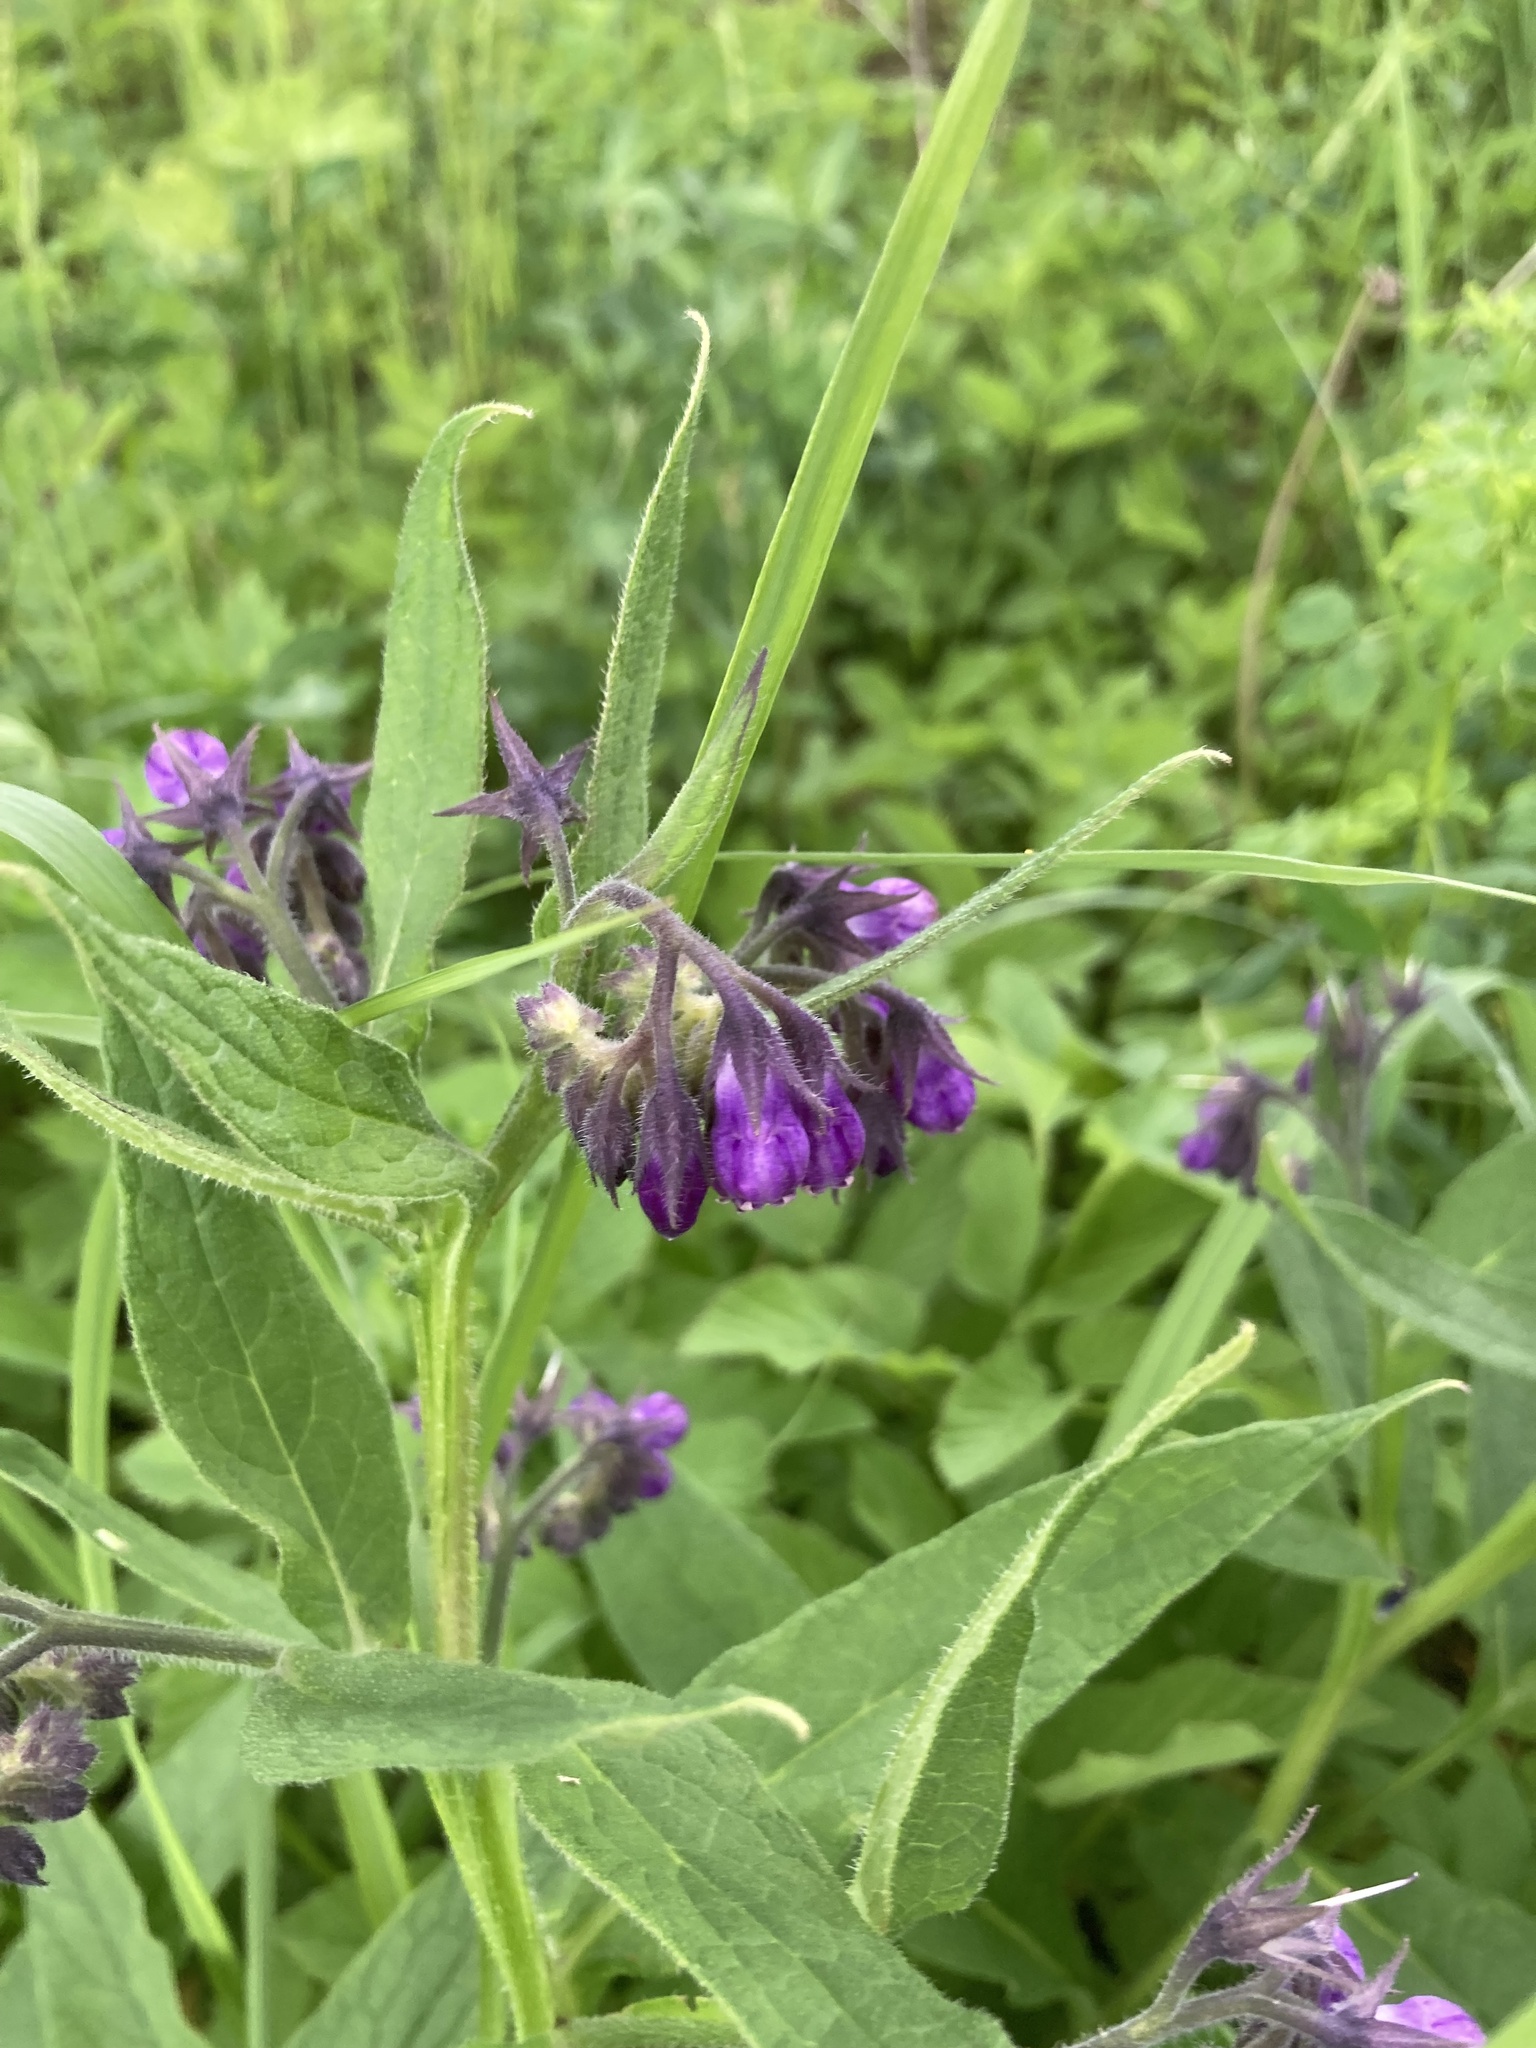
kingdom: Plantae
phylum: Tracheophyta
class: Magnoliopsida
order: Boraginales
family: Boraginaceae
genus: Symphytum
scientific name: Symphytum officinale
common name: Common comfrey
